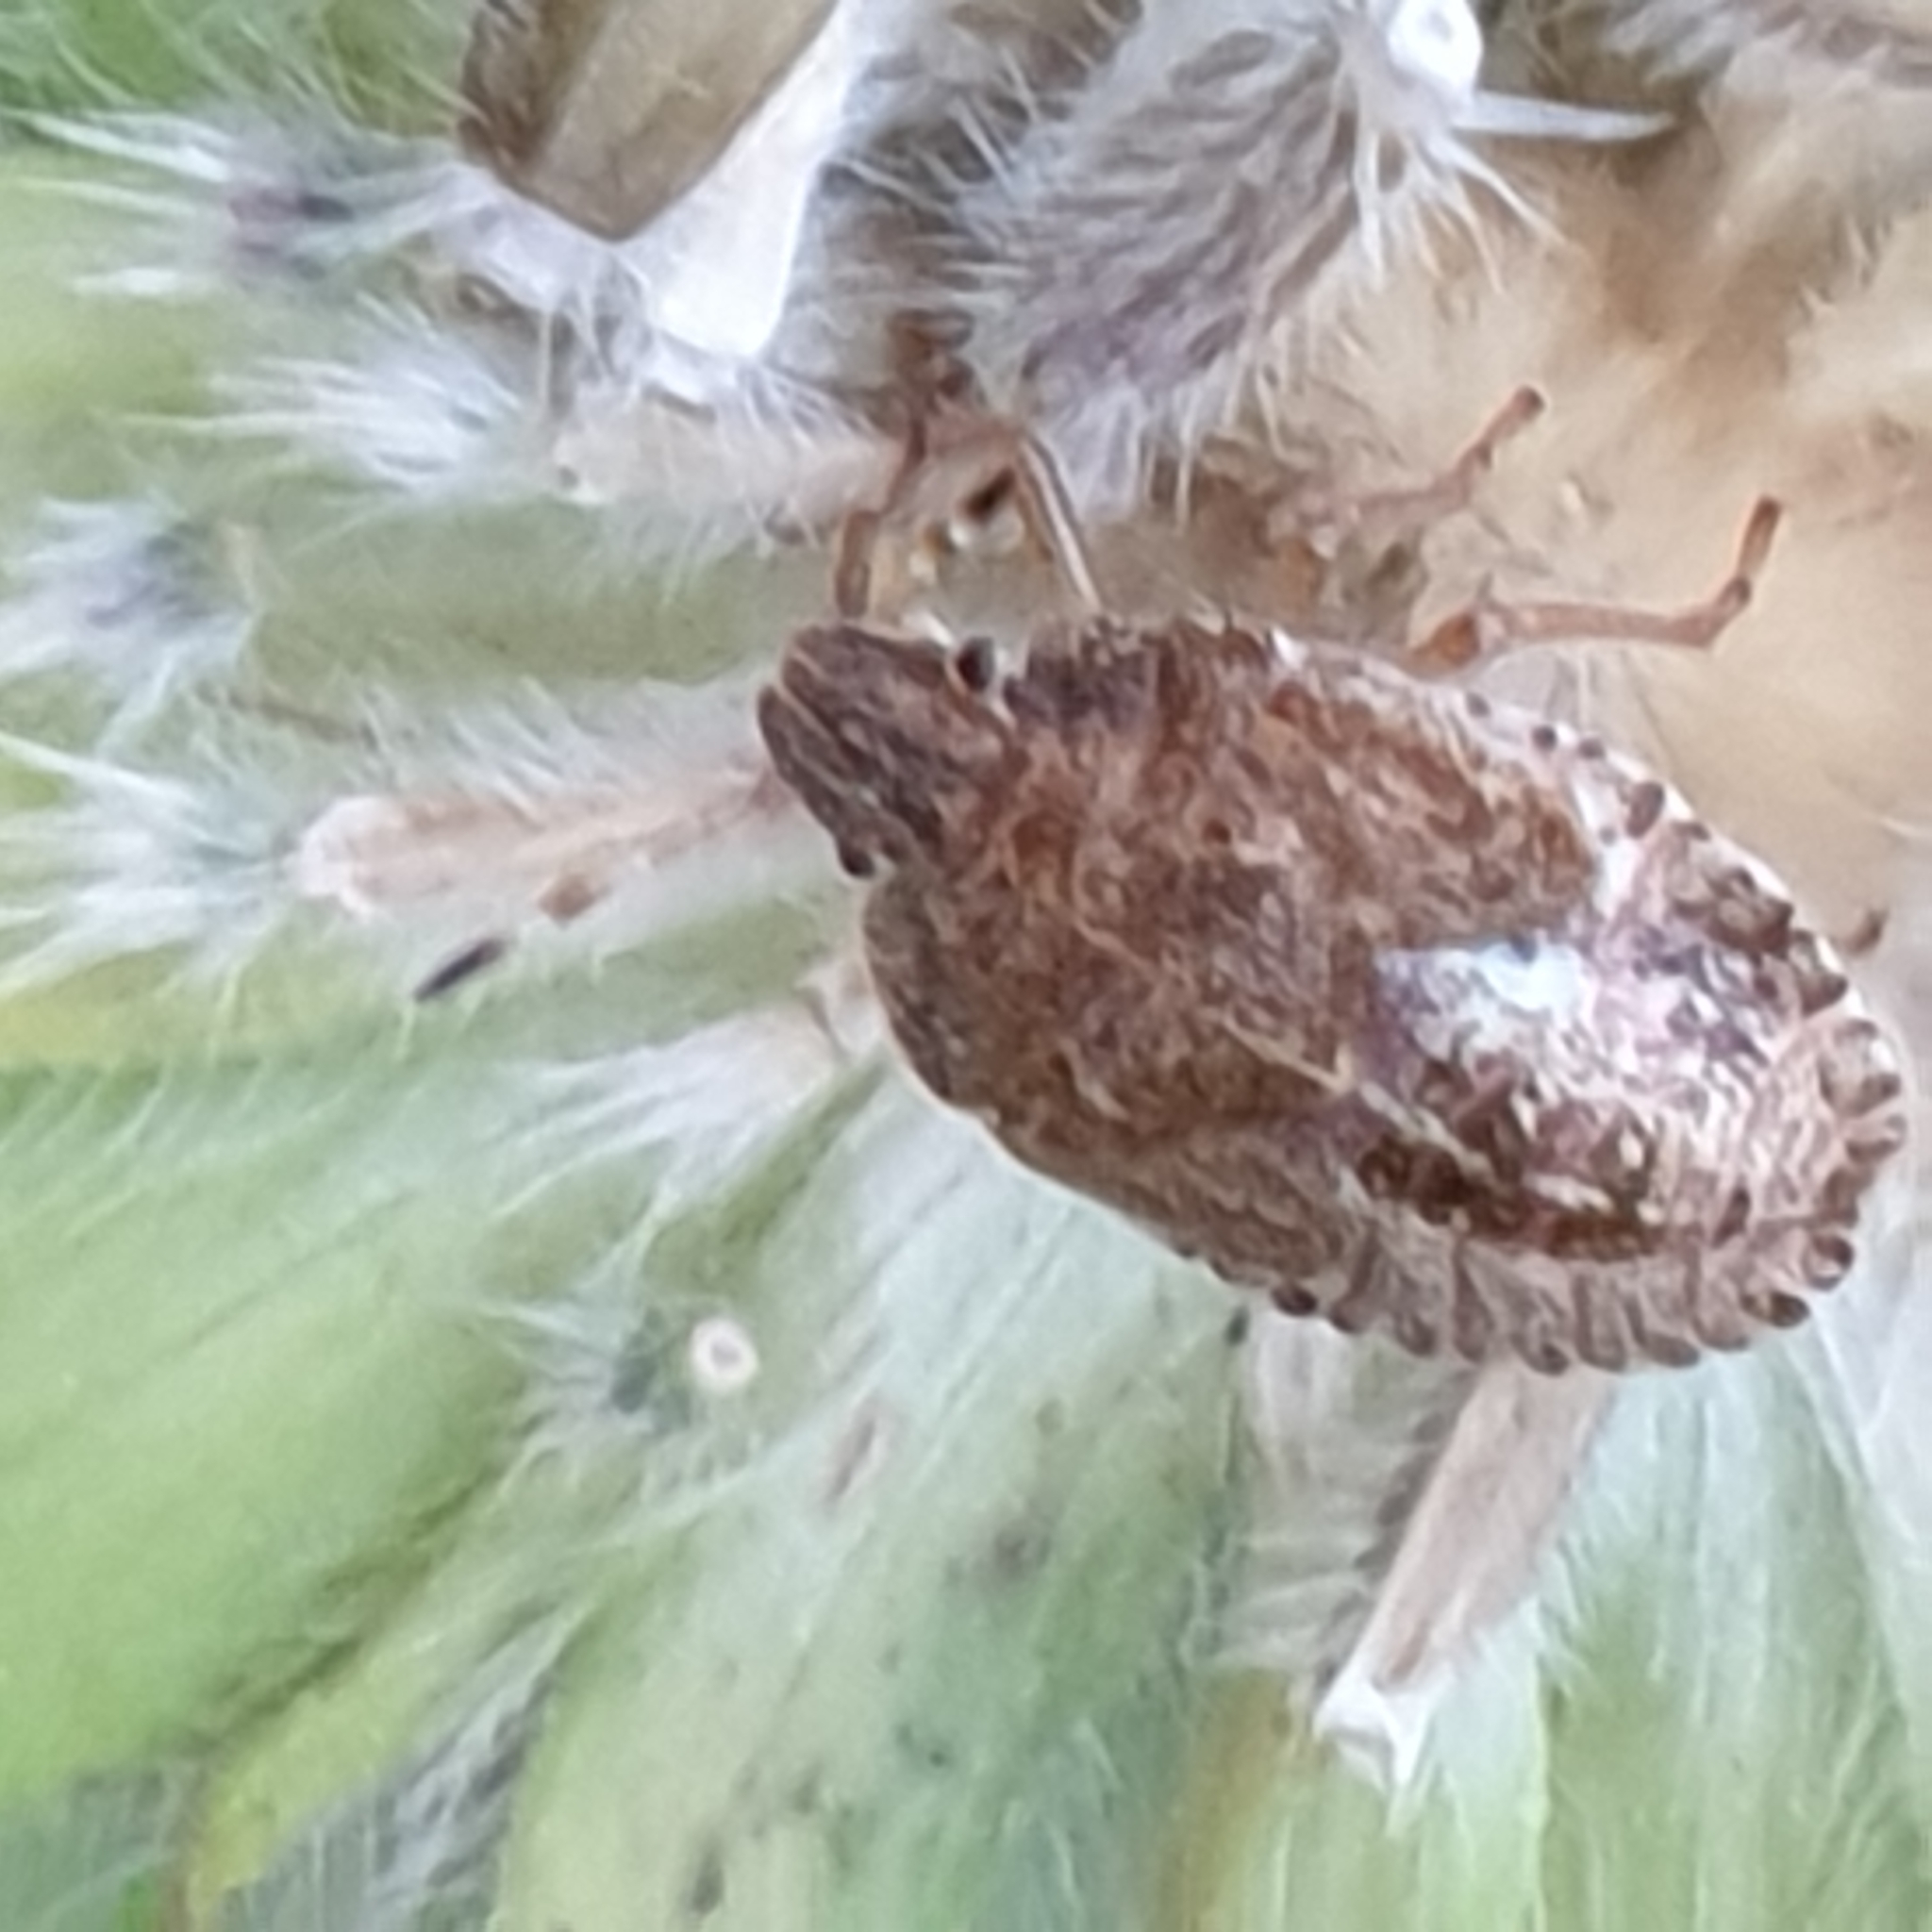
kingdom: Animalia
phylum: Arthropoda
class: Insecta
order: Hemiptera
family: Pentatomidae
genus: Dolycoris
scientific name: Dolycoris baccarum
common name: Sloe bug
